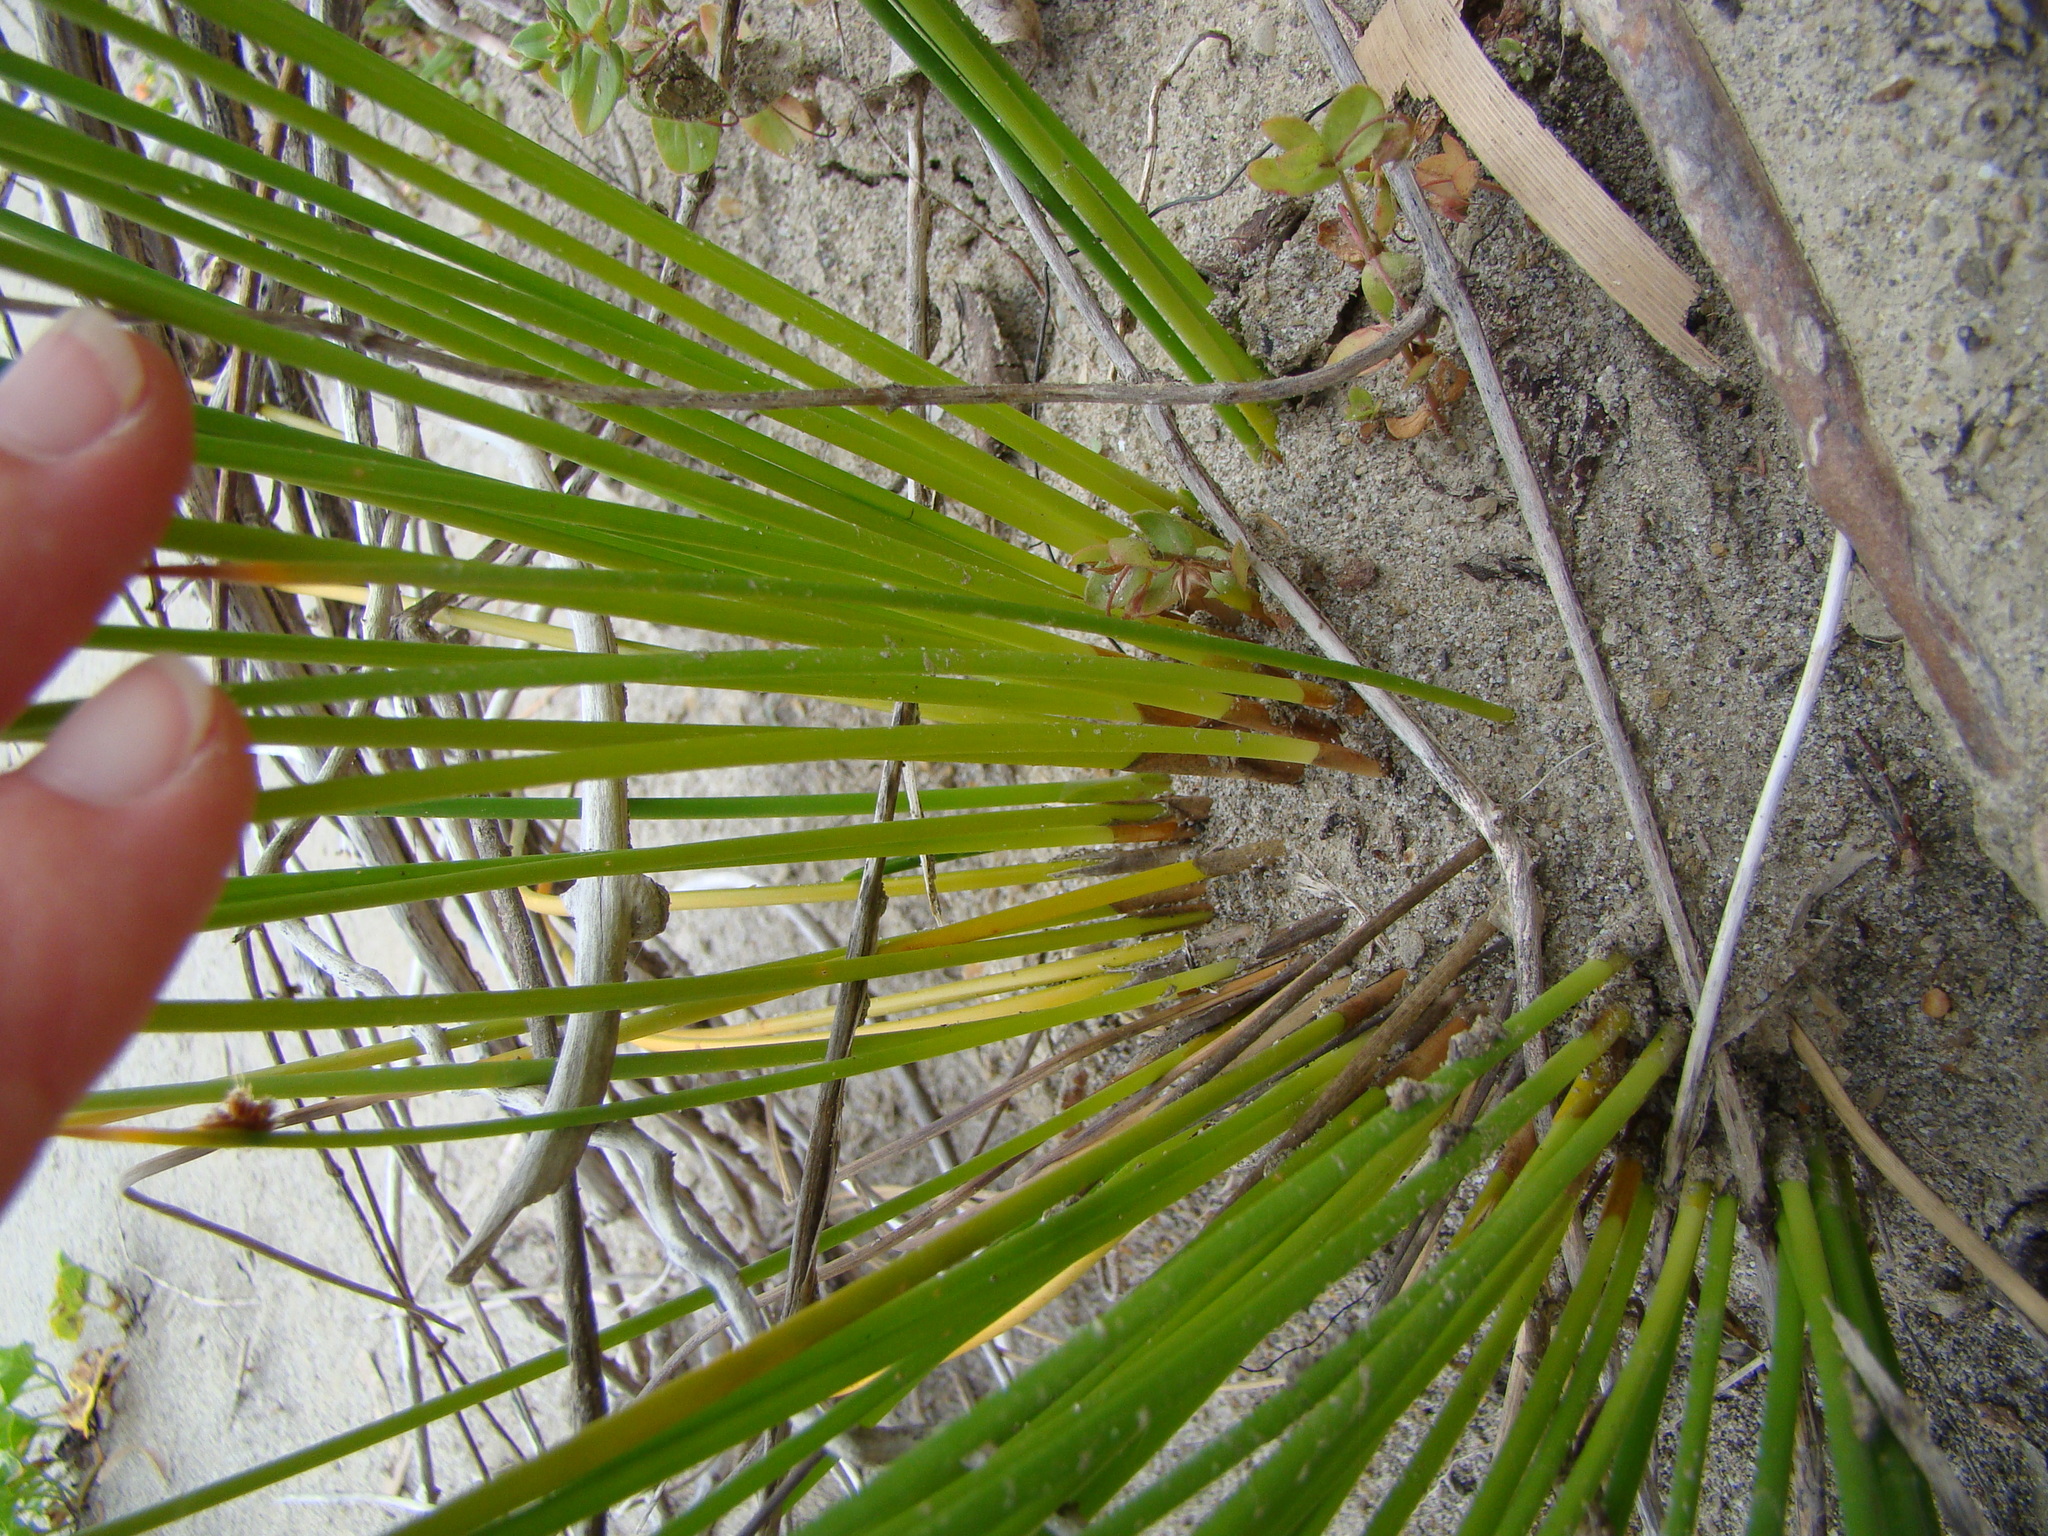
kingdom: Plantae
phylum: Tracheophyta
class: Liliopsida
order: Poales
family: Cyperaceae
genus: Ficinia
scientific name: Ficinia nodosa
